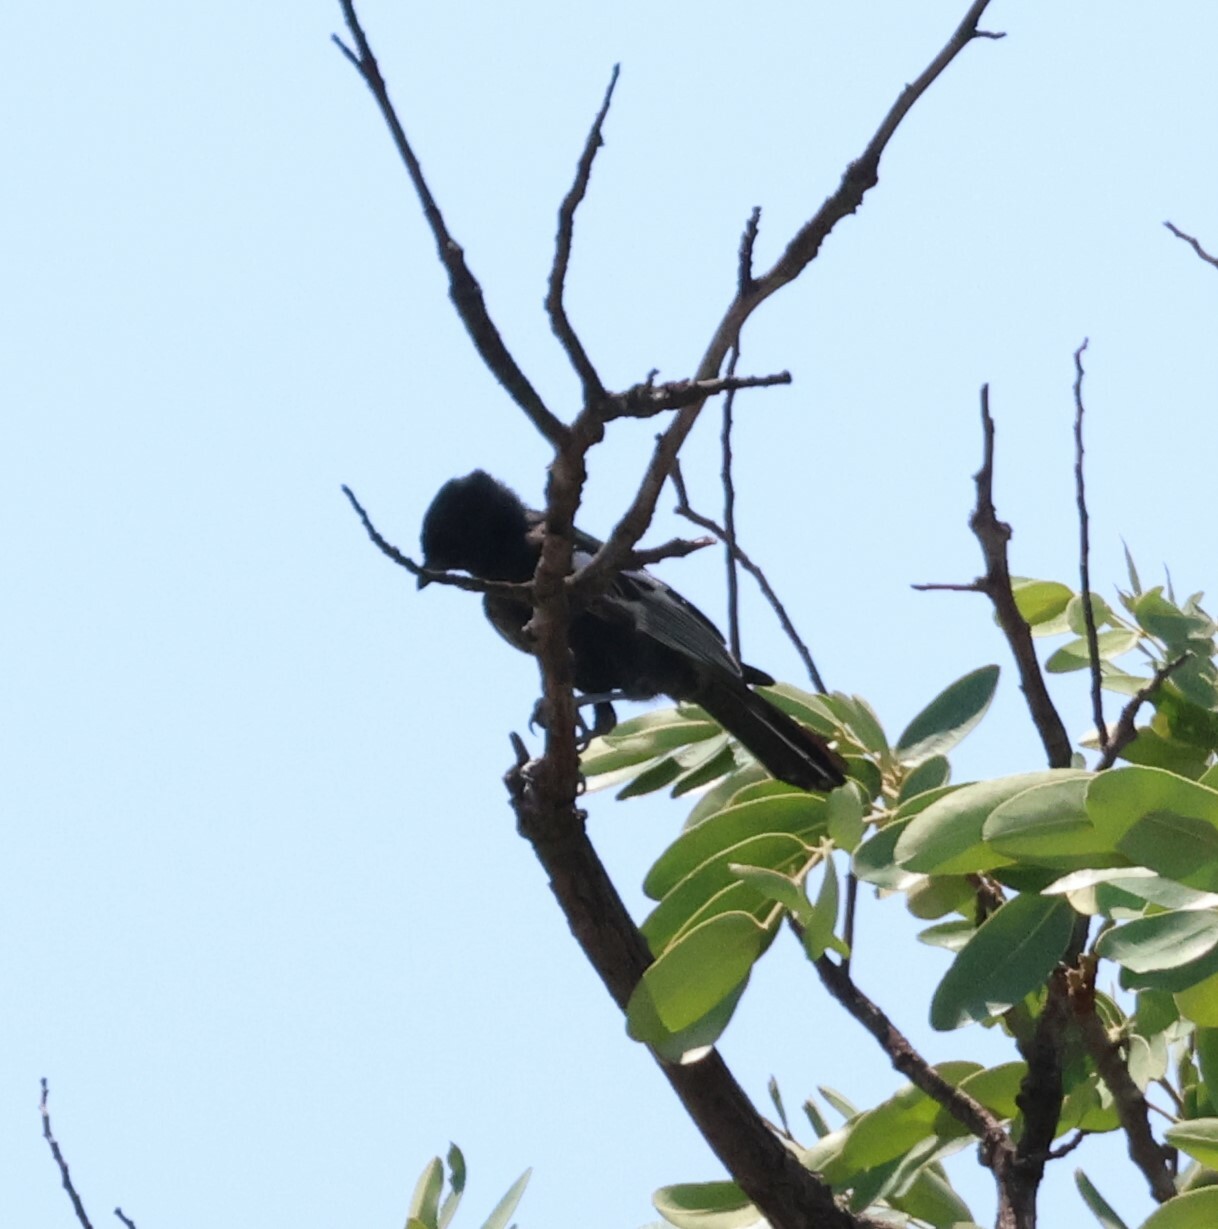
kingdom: Animalia
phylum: Chordata
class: Aves
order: Passeriformes
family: Paridae
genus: Parus
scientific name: Parus niger
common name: Southern black tit
